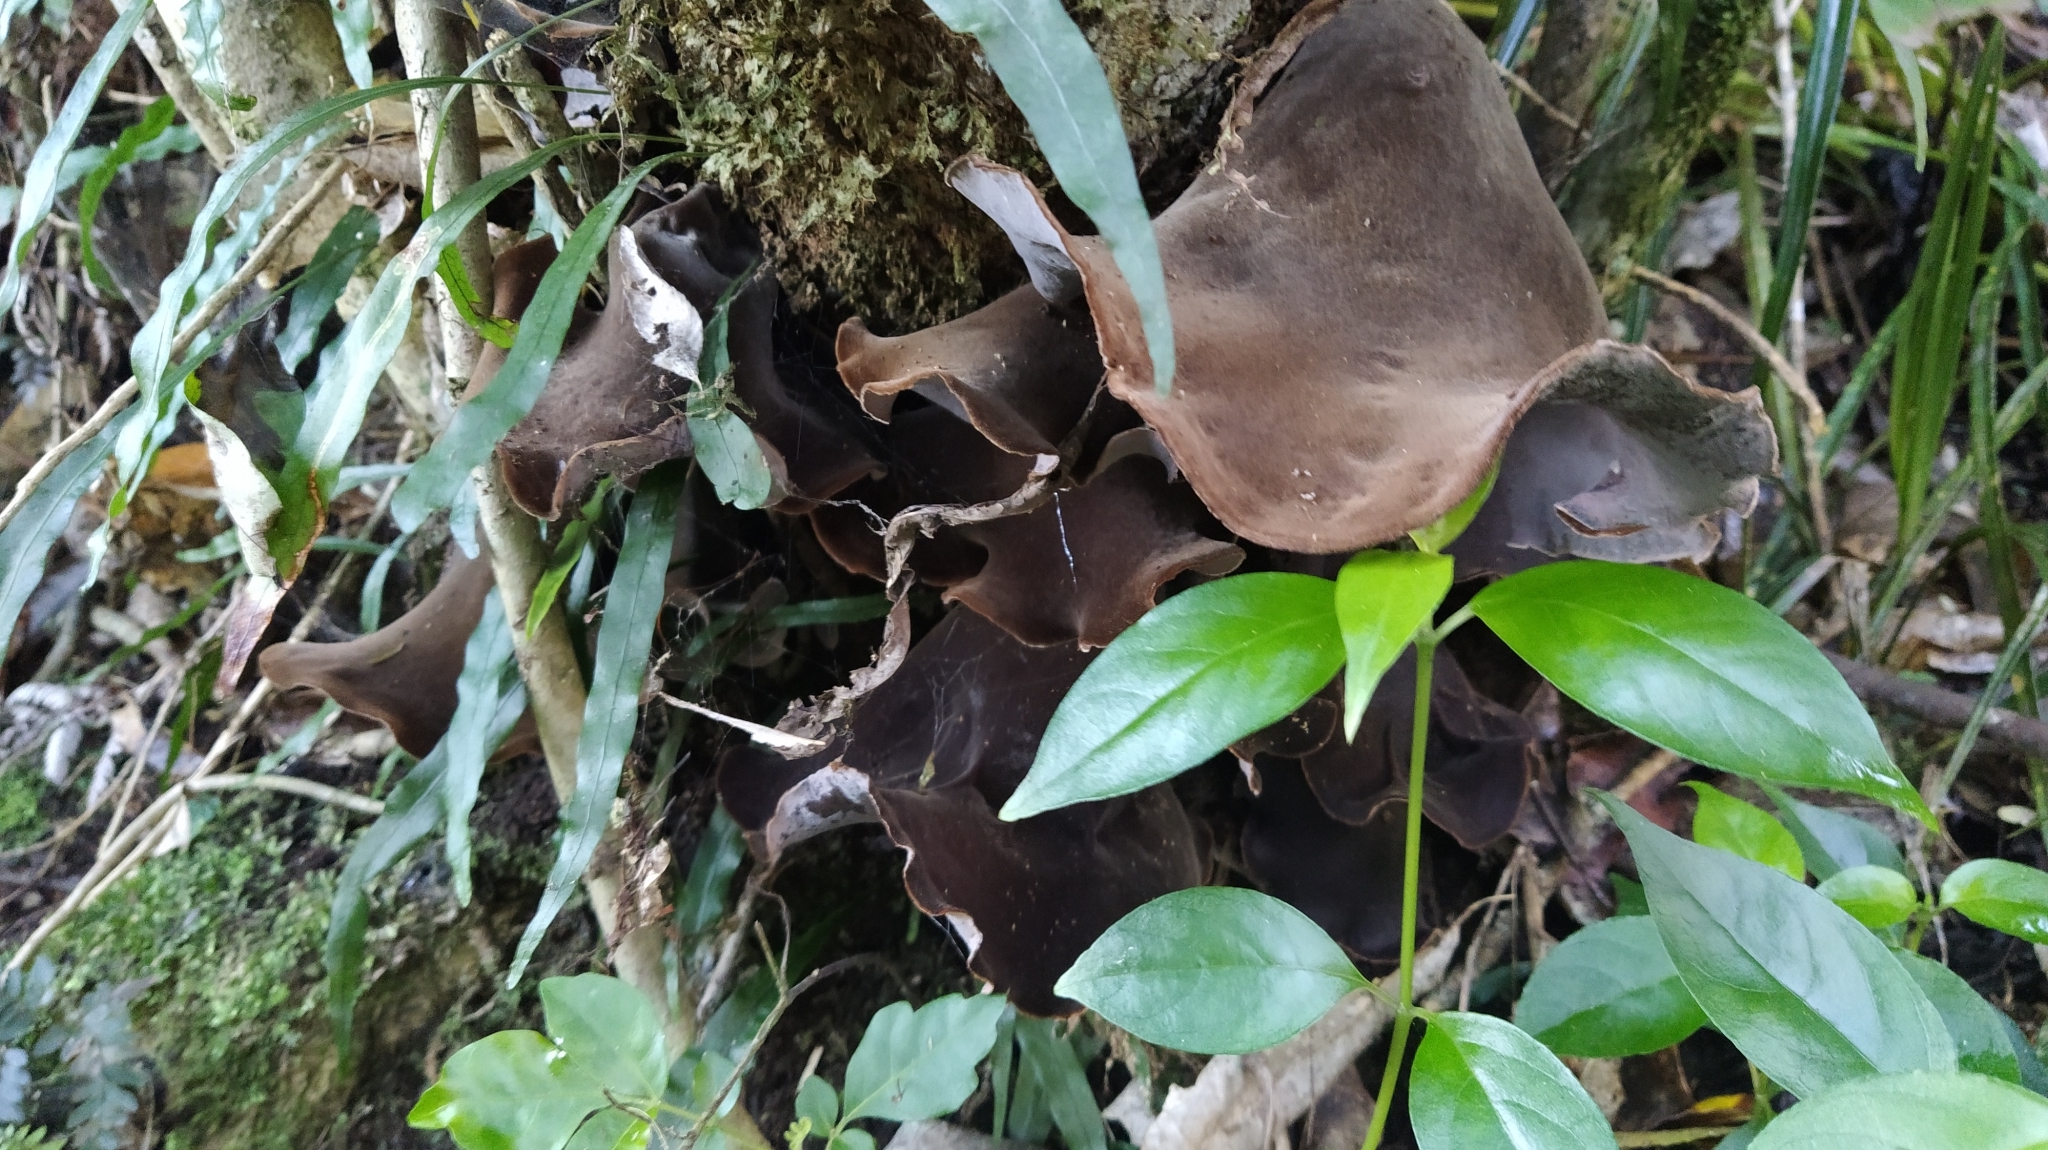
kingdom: Fungi
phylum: Basidiomycota
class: Agaricomycetes
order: Auriculariales
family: Auriculariaceae
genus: Auricularia
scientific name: Auricularia cornea
